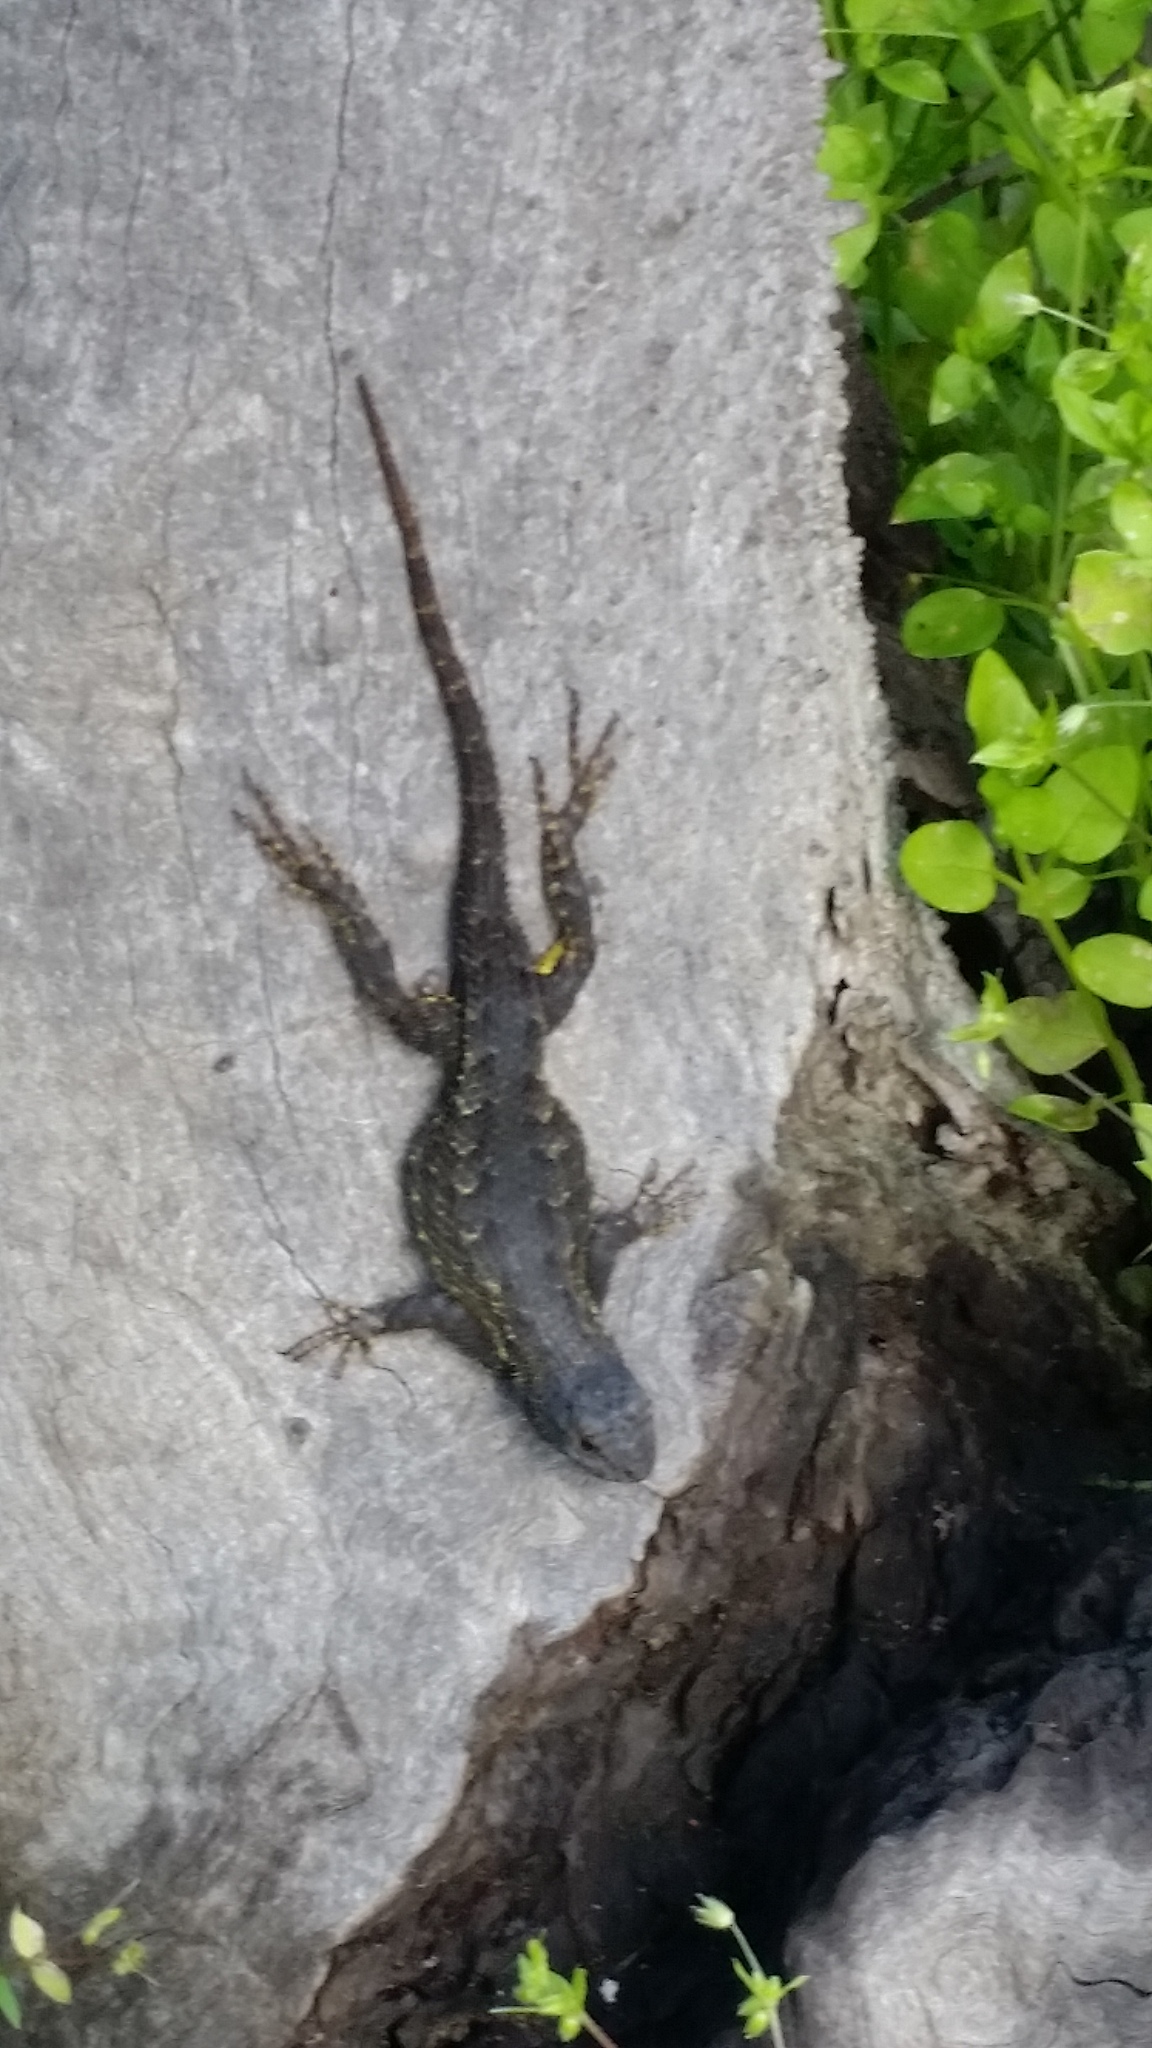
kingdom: Animalia
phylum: Chordata
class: Squamata
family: Phrynosomatidae
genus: Sceloporus
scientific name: Sceloporus occidentalis
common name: Western fence lizard
